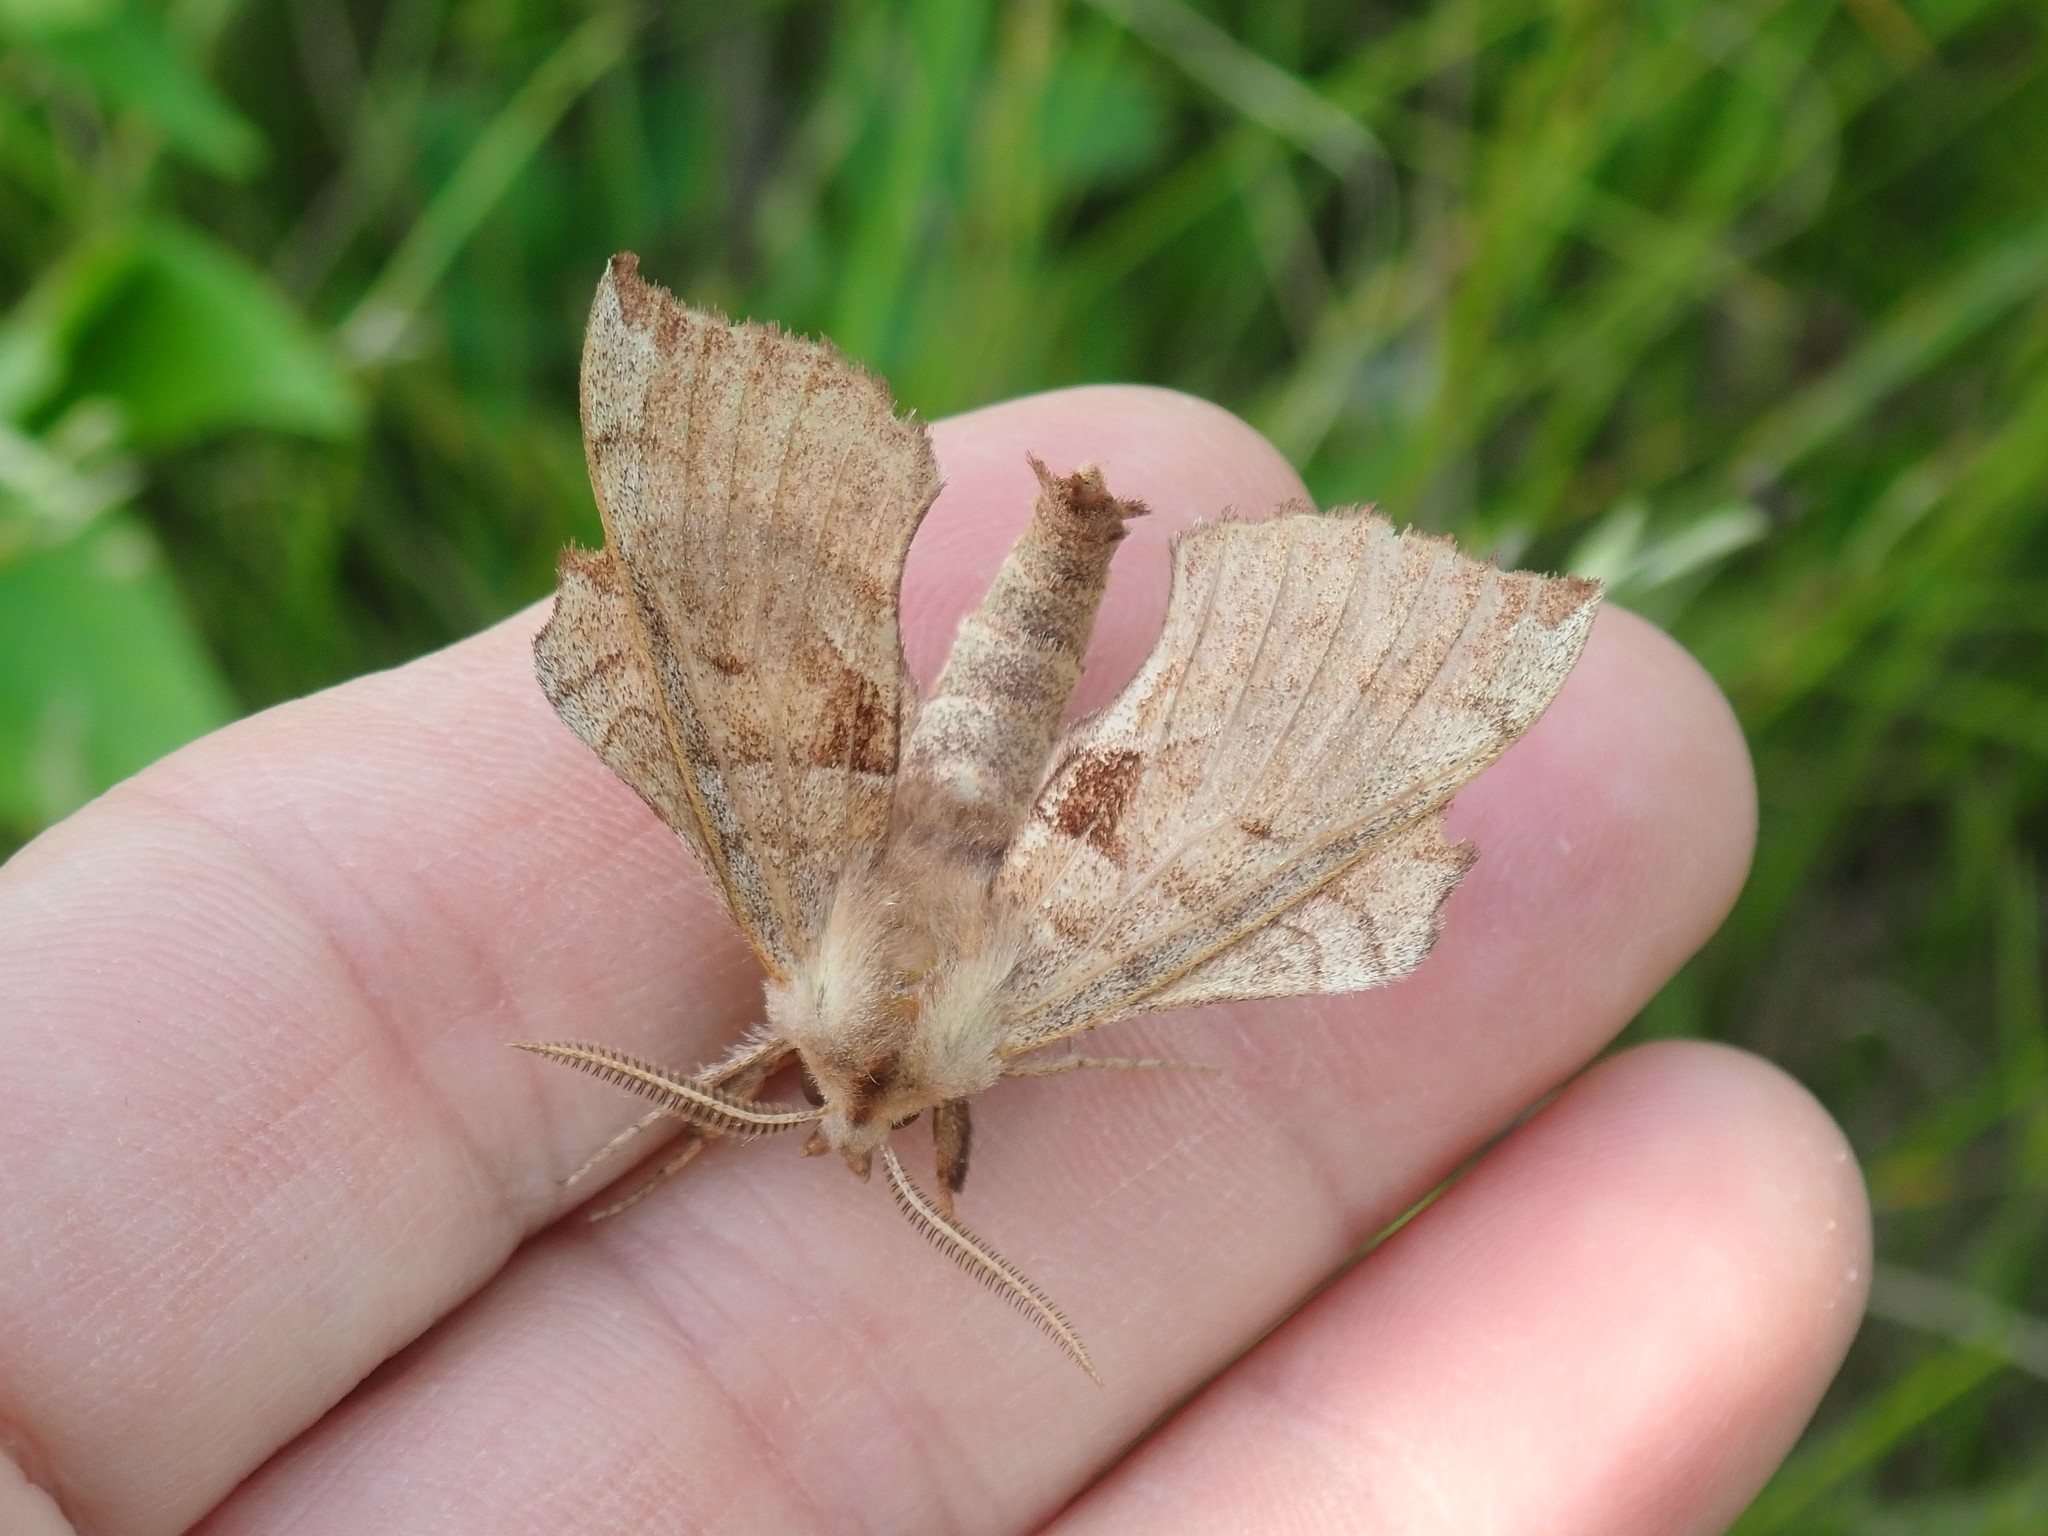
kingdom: Animalia
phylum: Arthropoda
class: Insecta
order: Lepidoptera
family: Sphingidae
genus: Amorpha
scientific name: Amorpha juglandis
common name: Walnut sphinx
